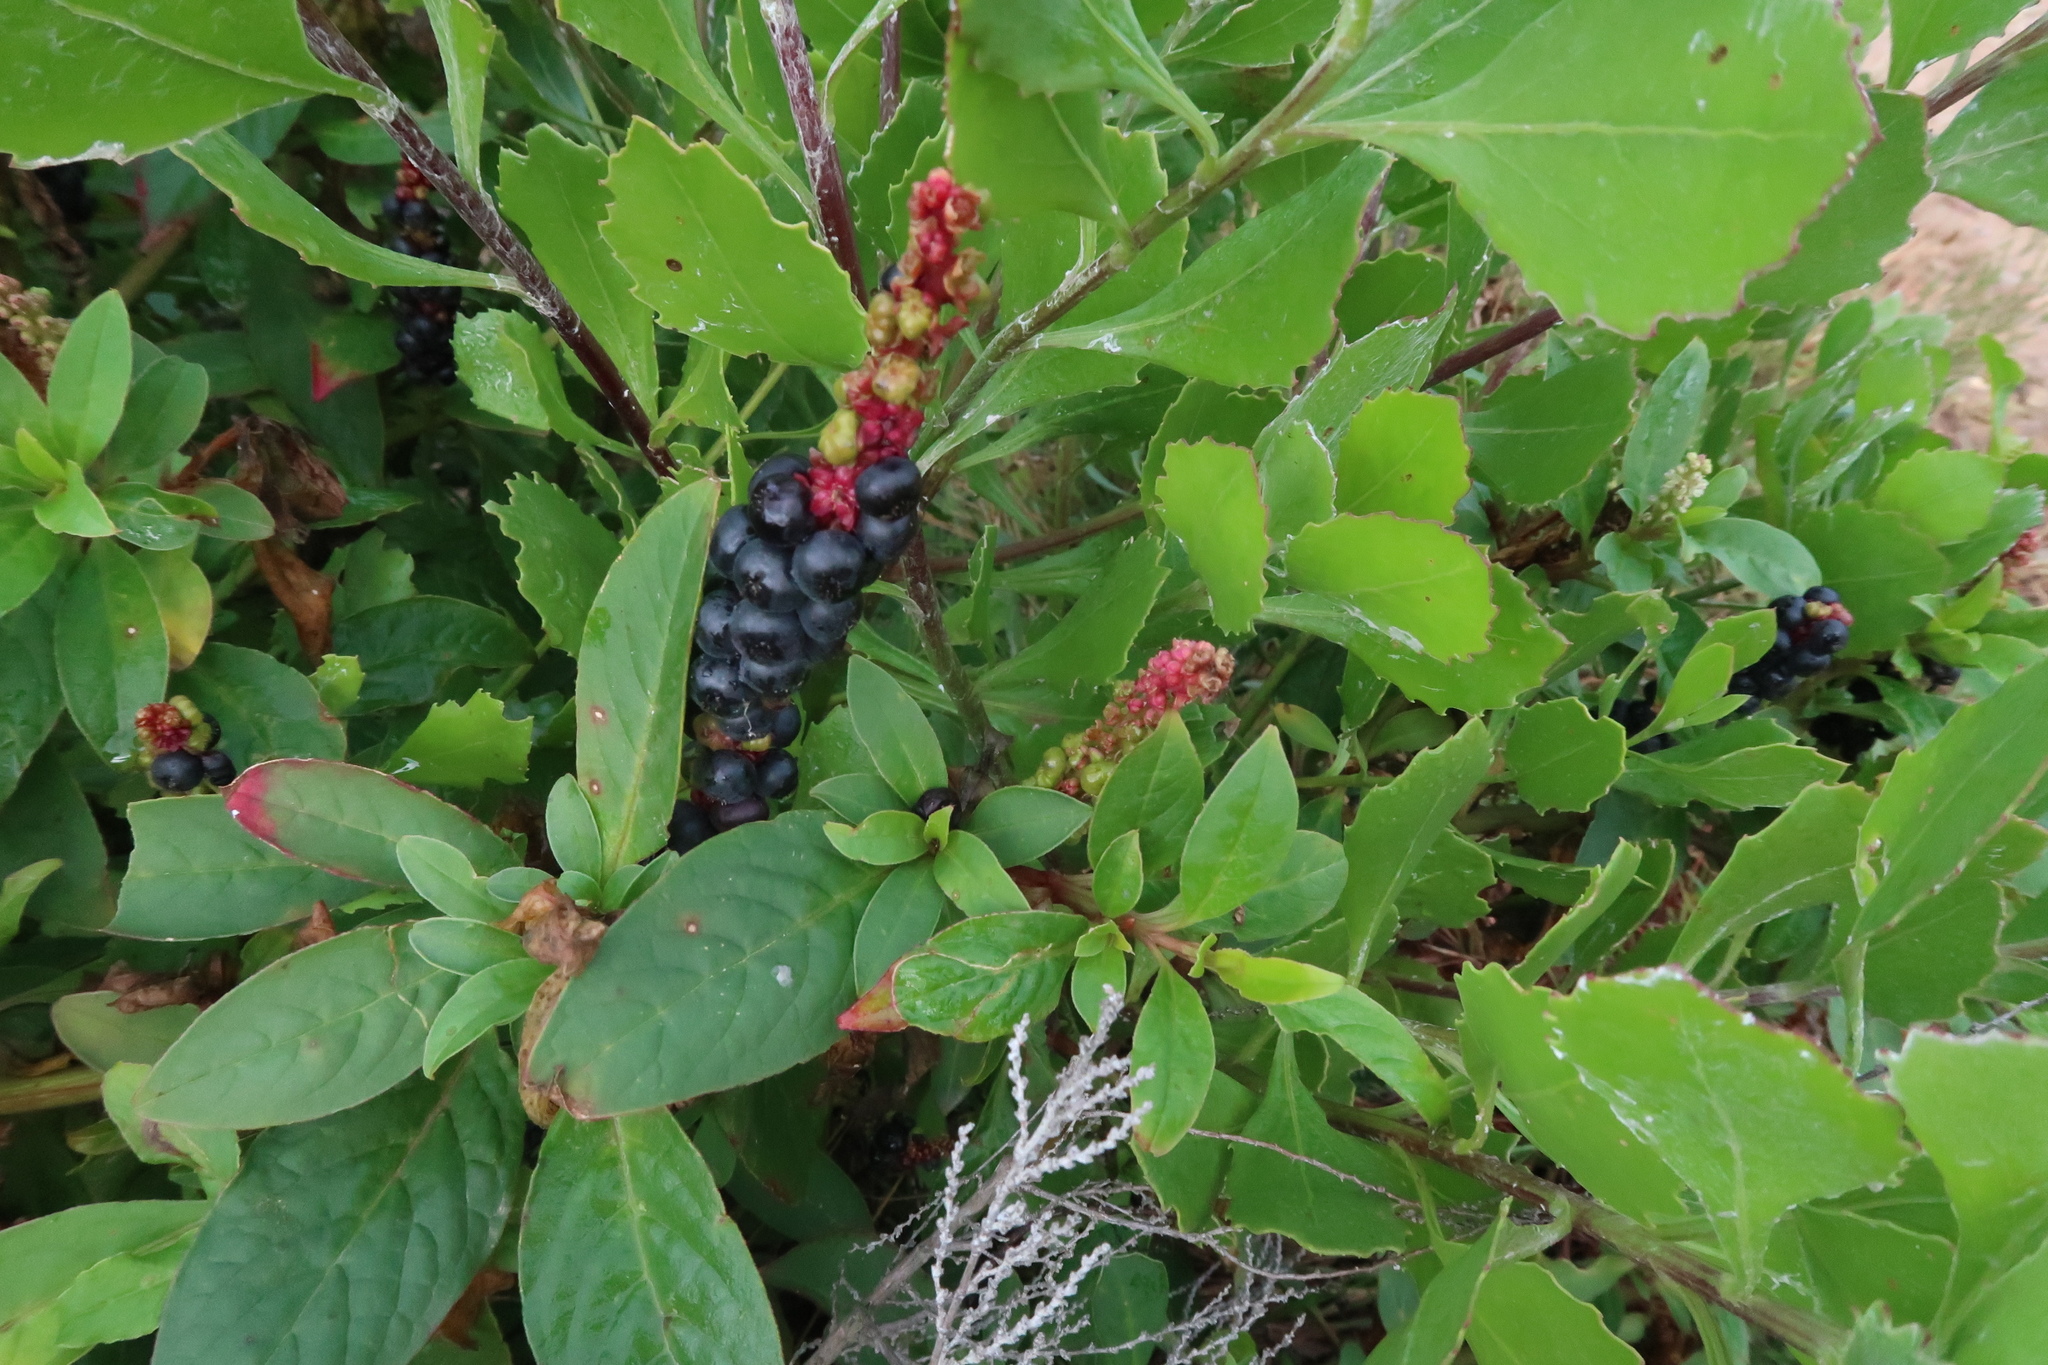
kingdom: Plantae
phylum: Tracheophyta
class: Magnoliopsida
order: Caryophyllales
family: Phytolaccaceae
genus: Phytolacca
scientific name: Phytolacca icosandra
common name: Button pokeweed
